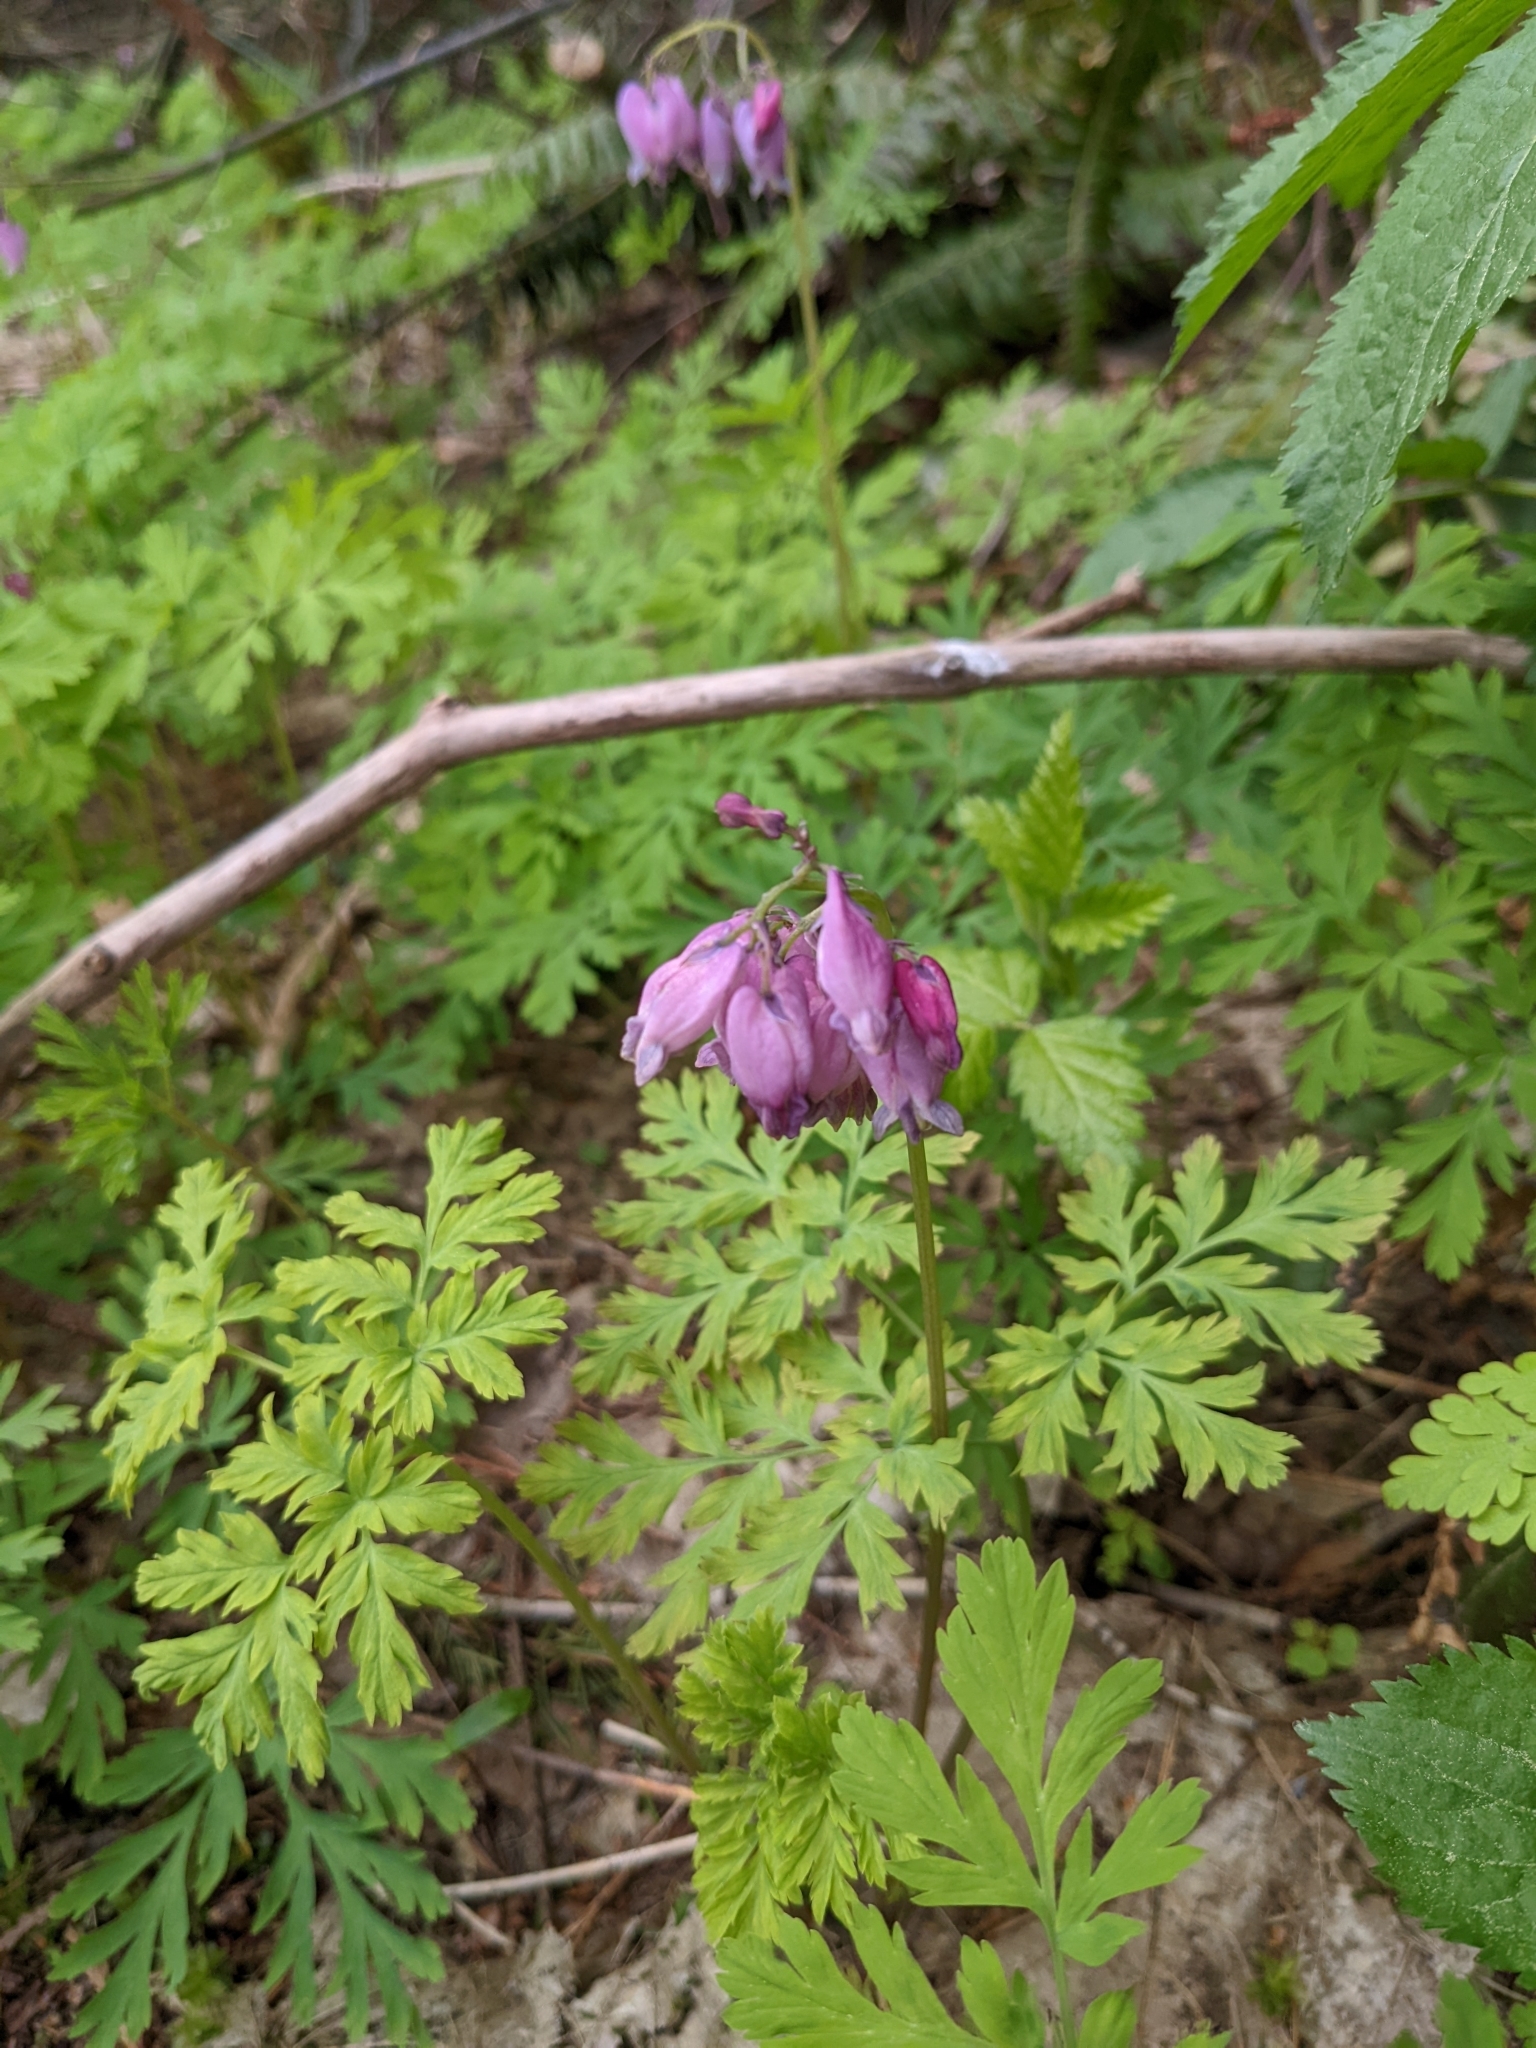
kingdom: Plantae
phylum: Tracheophyta
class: Magnoliopsida
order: Ranunculales
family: Papaveraceae
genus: Dicentra
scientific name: Dicentra formosa
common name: Bleeding-heart
